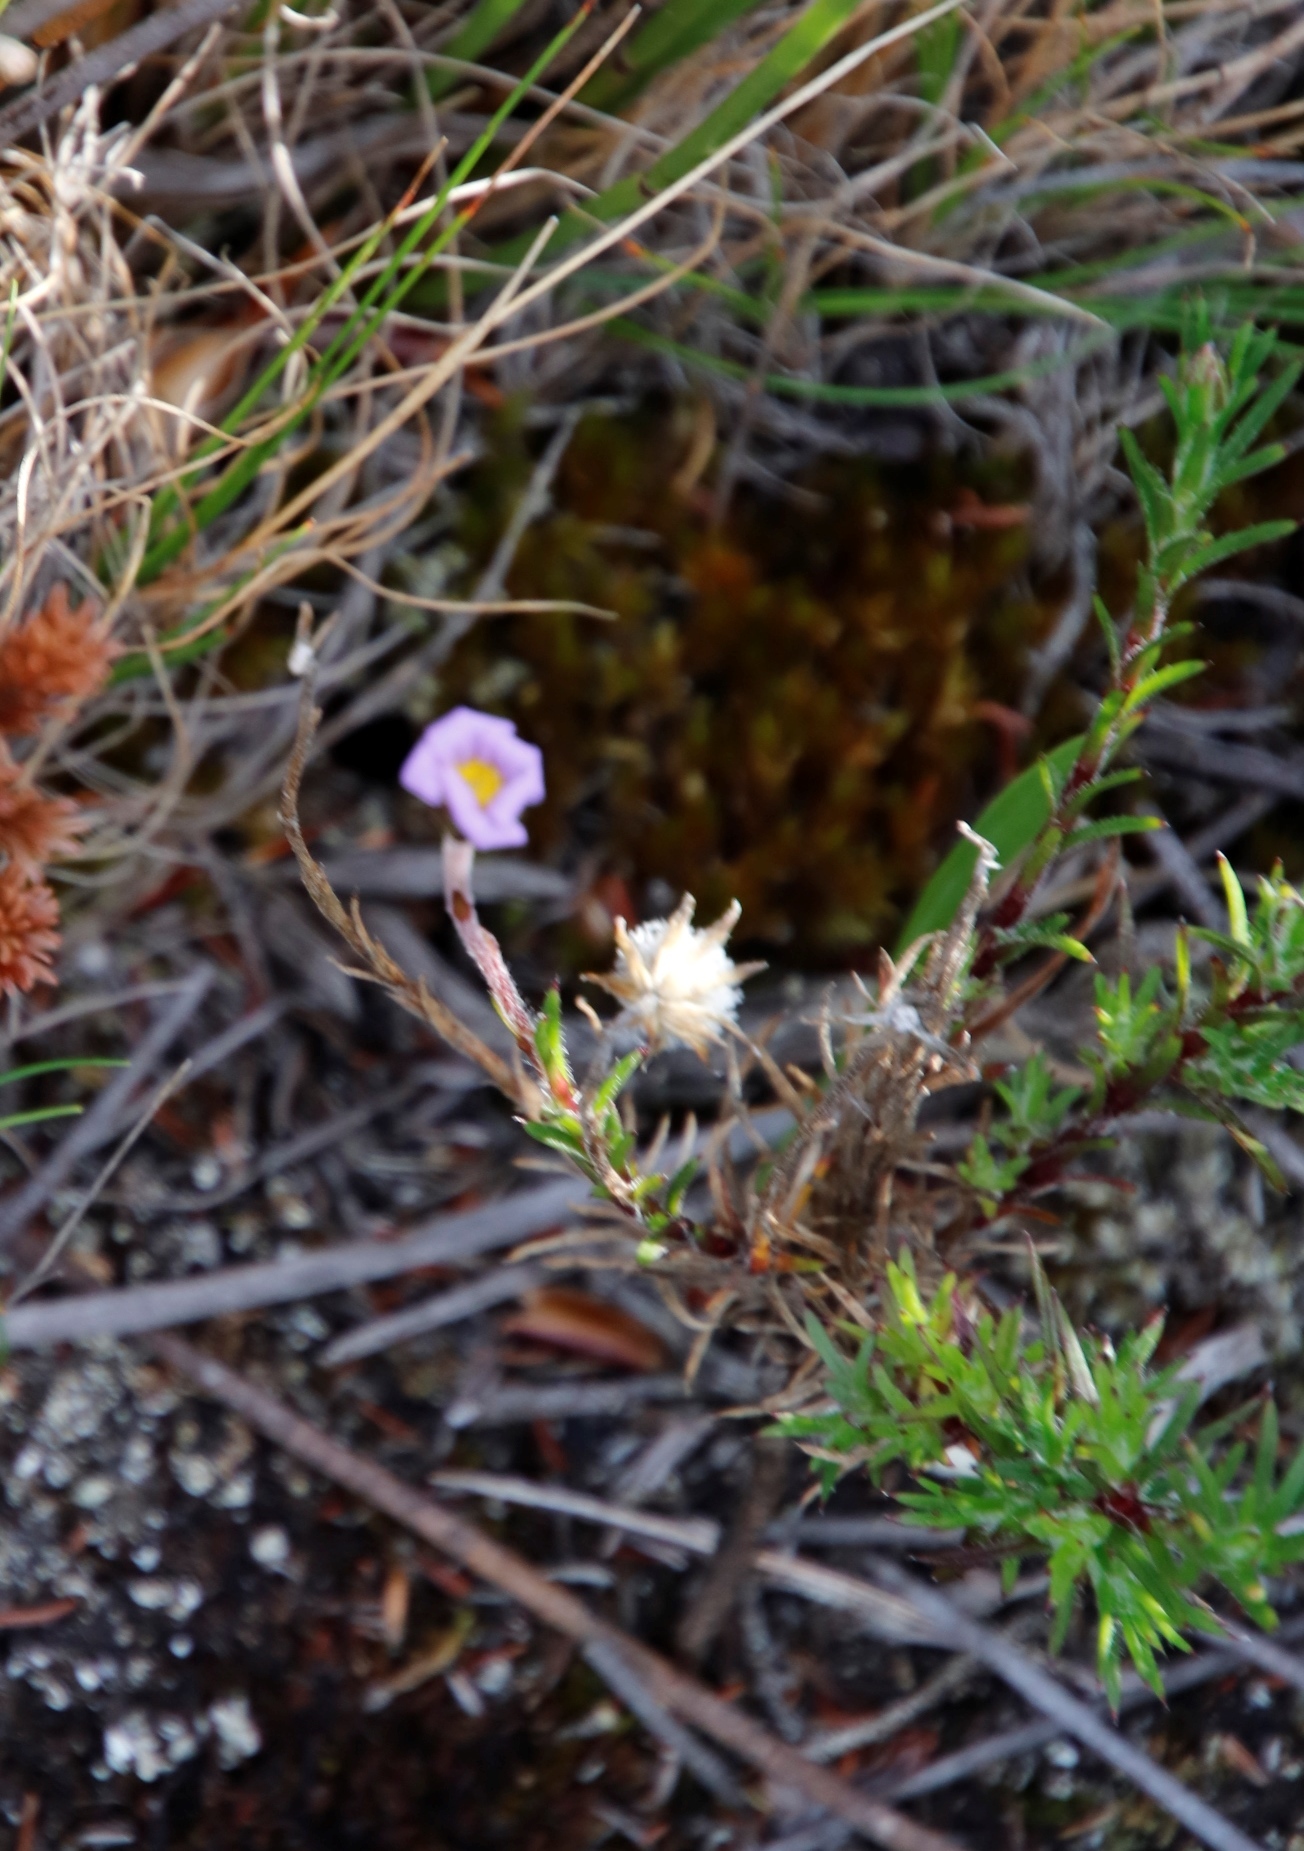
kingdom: Plantae
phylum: Tracheophyta
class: Magnoliopsida
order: Asterales
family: Asteraceae
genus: Zyrphelis
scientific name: Zyrphelis taxifolia
